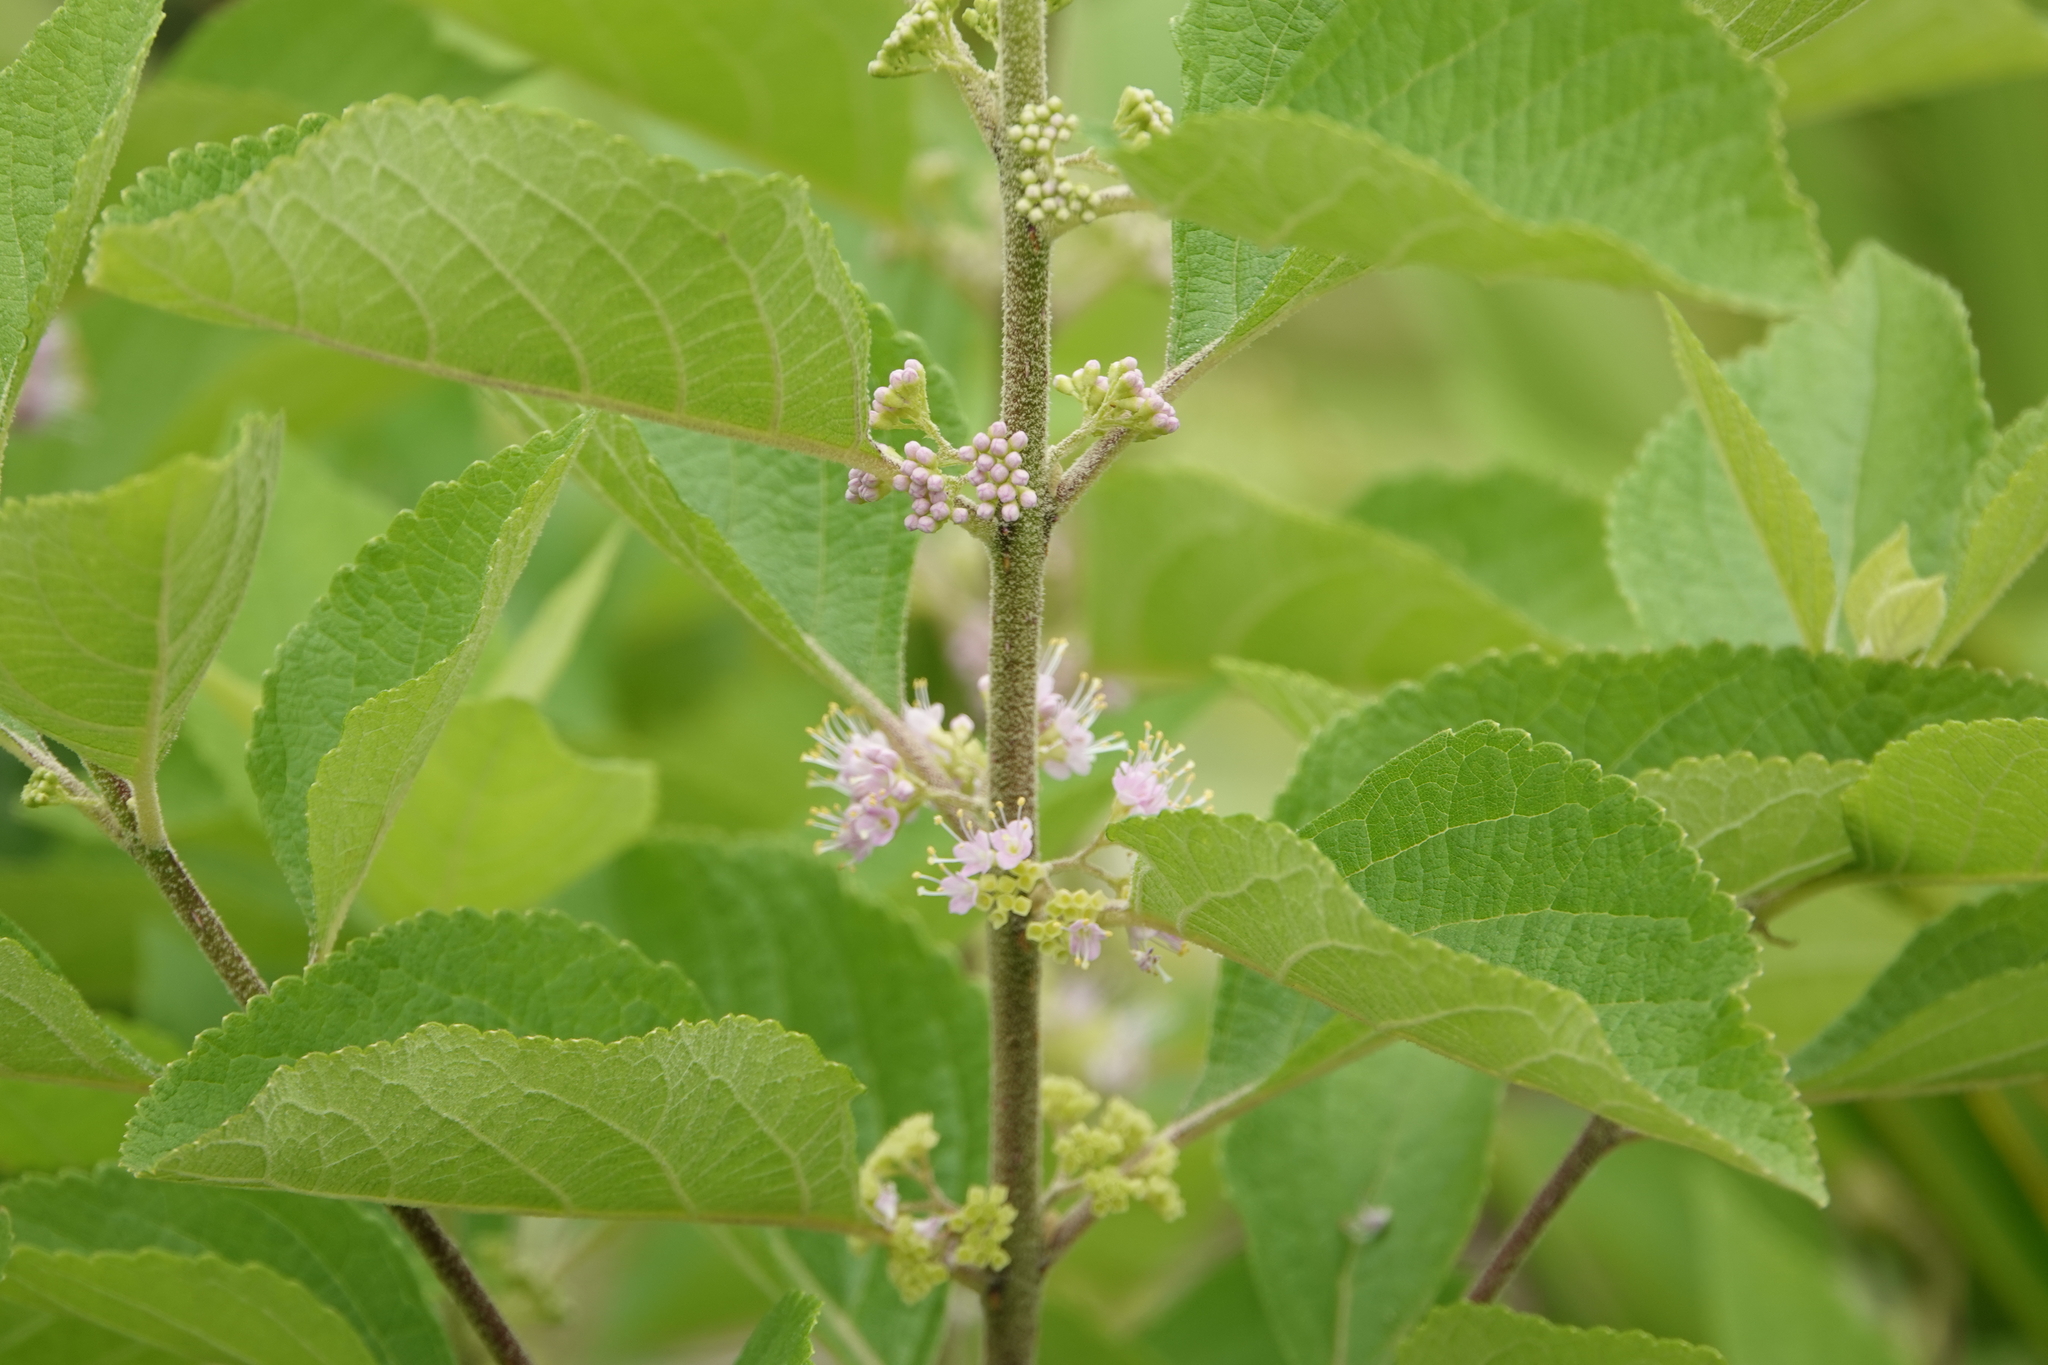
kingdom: Plantae
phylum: Tracheophyta
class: Magnoliopsida
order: Lamiales
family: Lamiaceae
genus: Callicarpa
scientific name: Callicarpa americana
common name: American beautyberry
